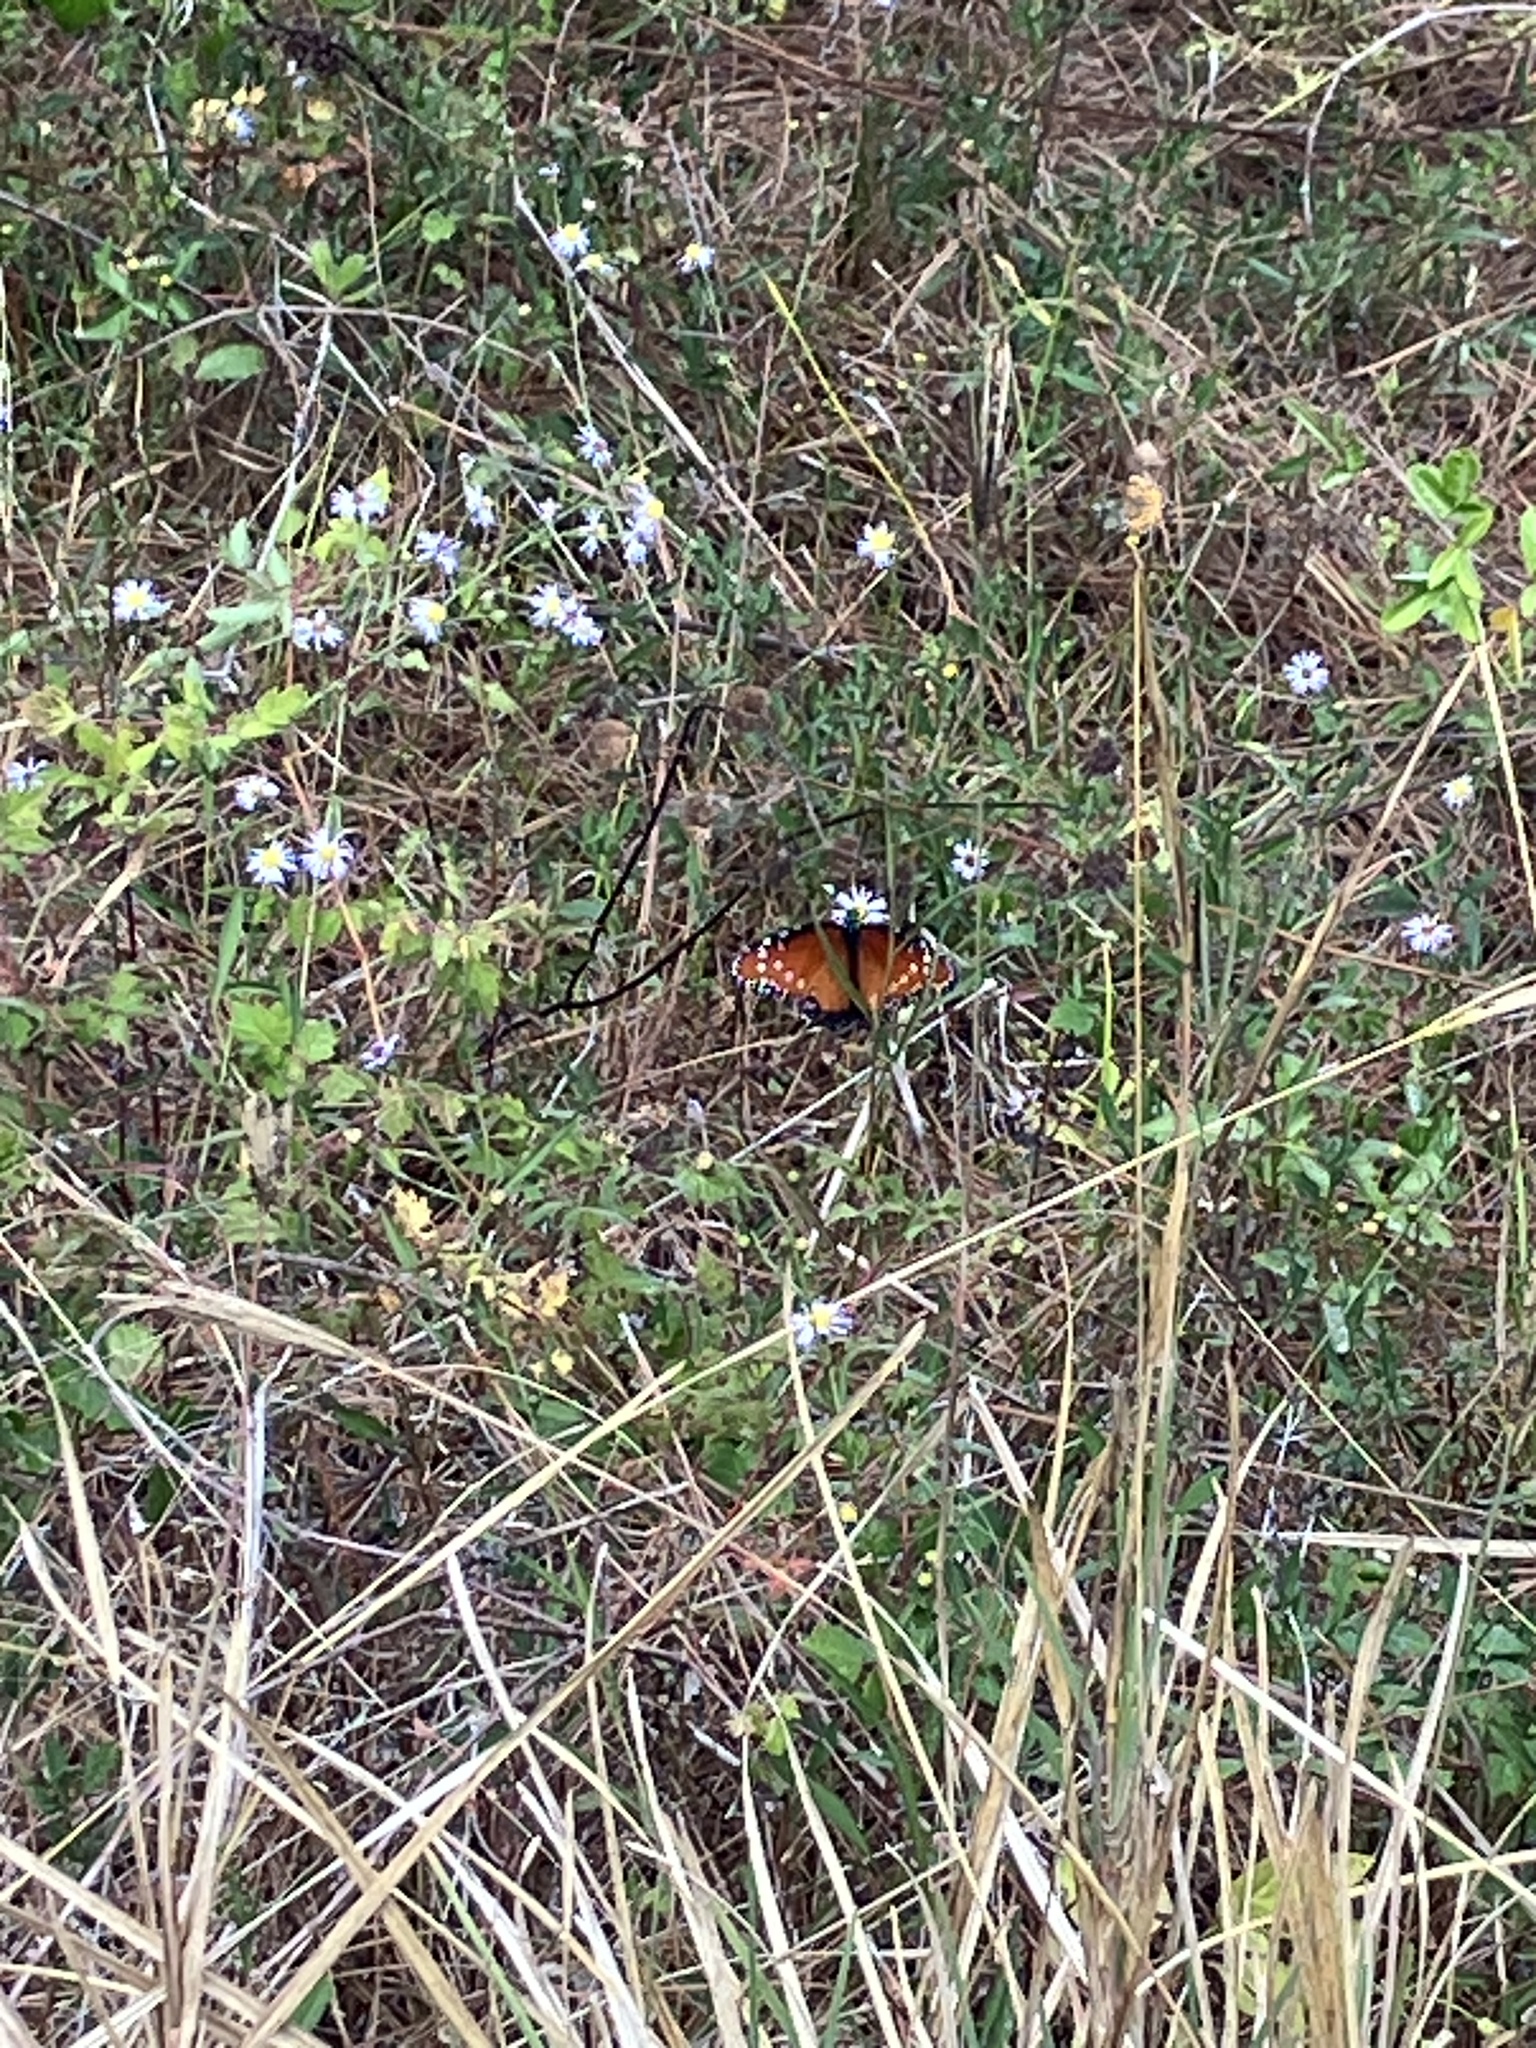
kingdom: Animalia
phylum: Arthropoda
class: Insecta
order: Lepidoptera
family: Nymphalidae
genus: Danaus
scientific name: Danaus gilippus
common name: Queen
